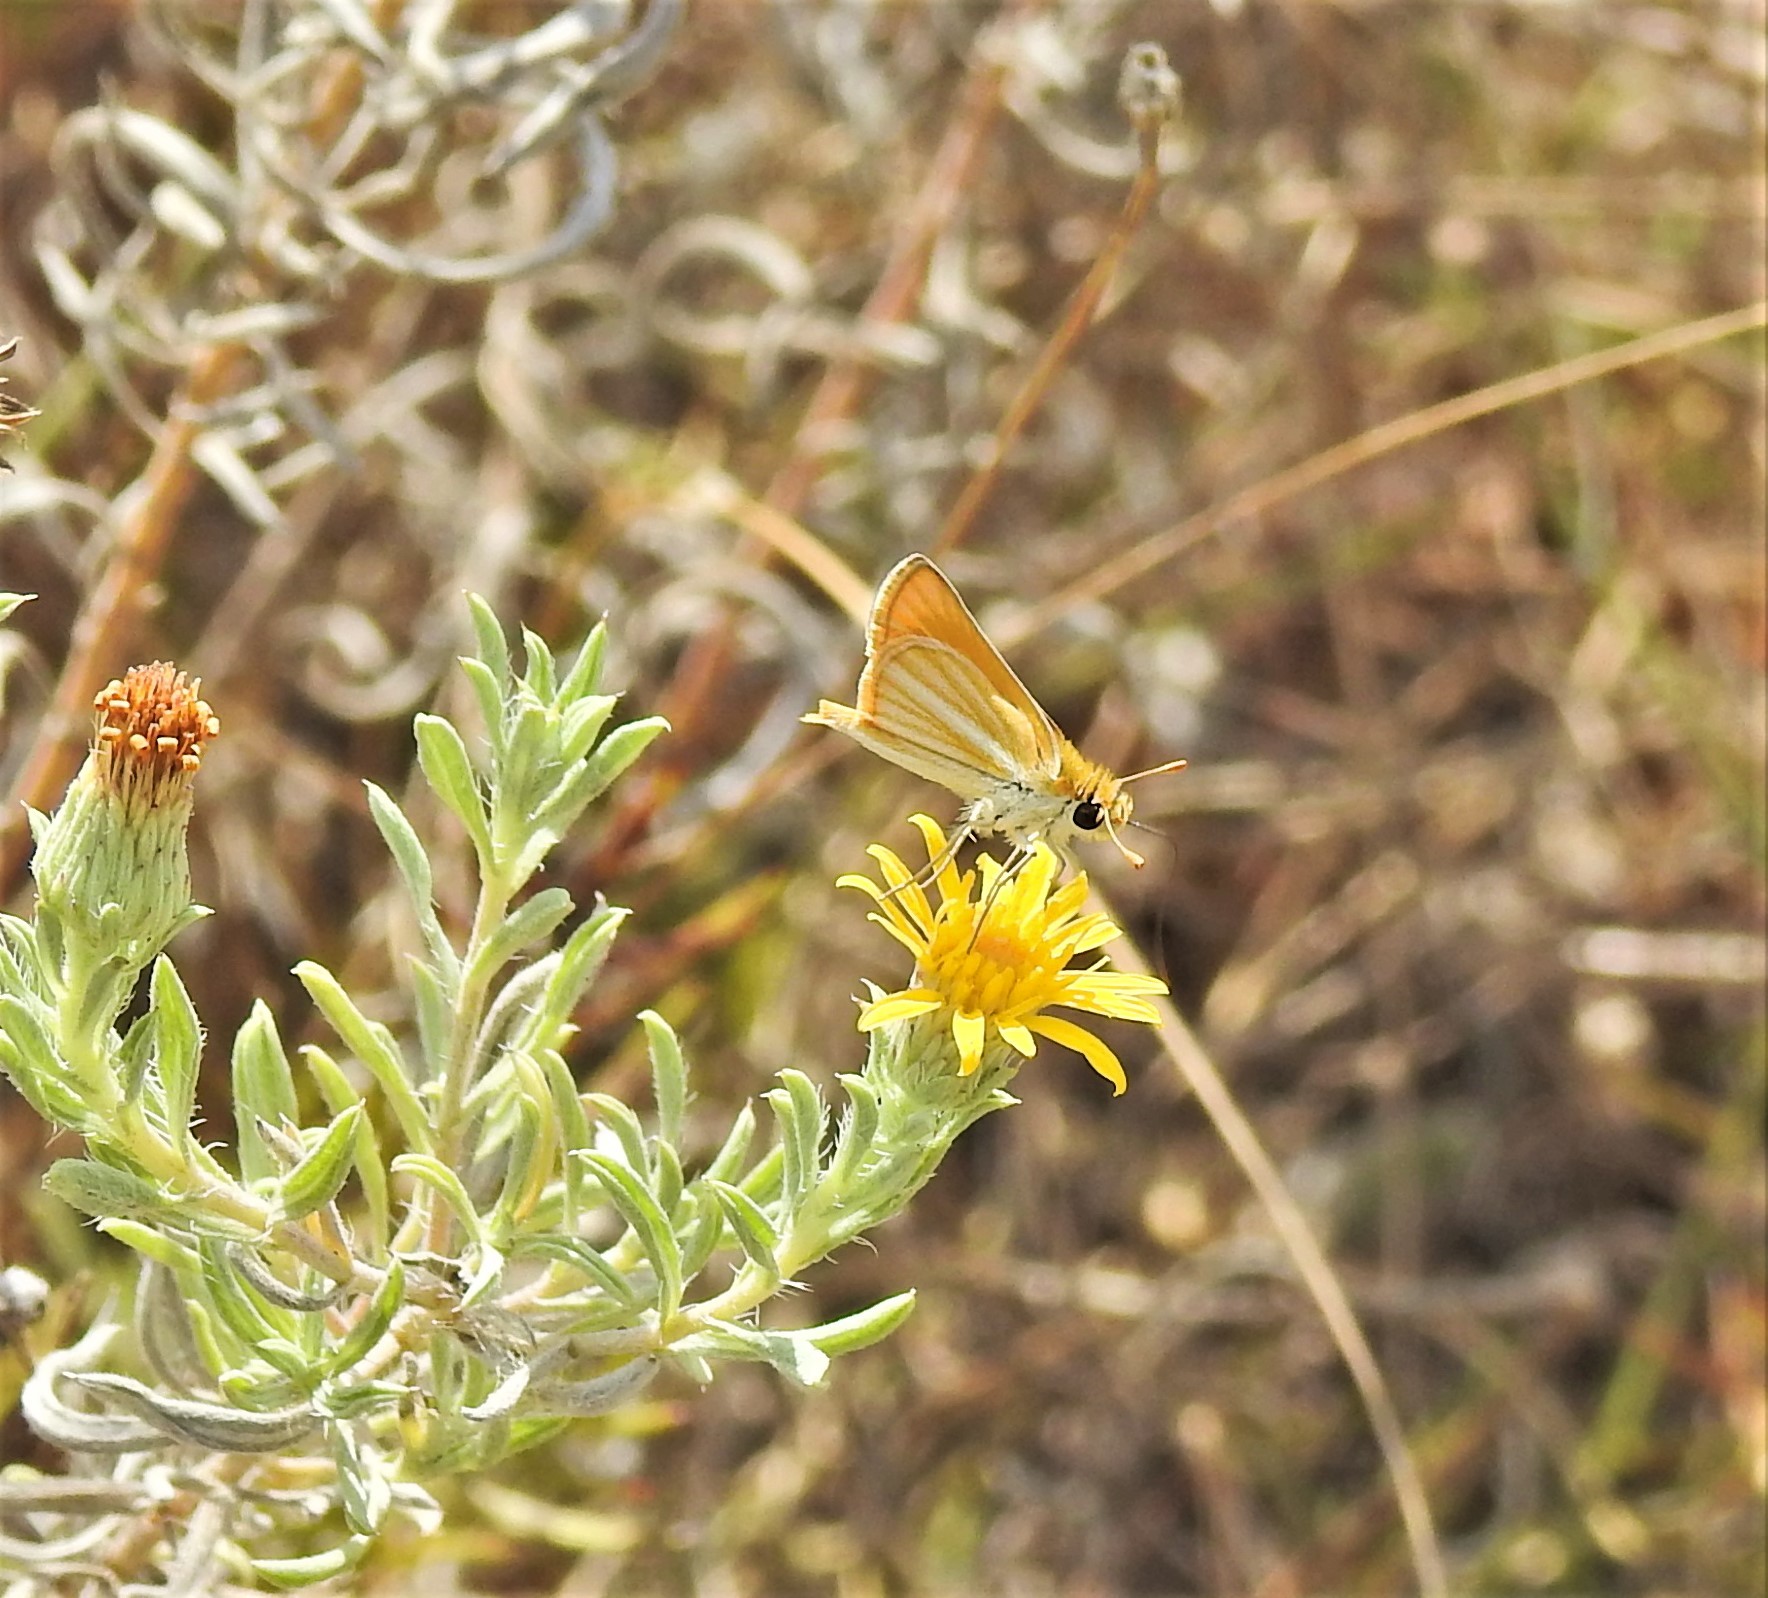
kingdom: Animalia
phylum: Arthropoda
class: Insecta
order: Lepidoptera
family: Hesperiidae
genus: Copaeodes
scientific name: Copaeodes minima
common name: Southern skipperling
